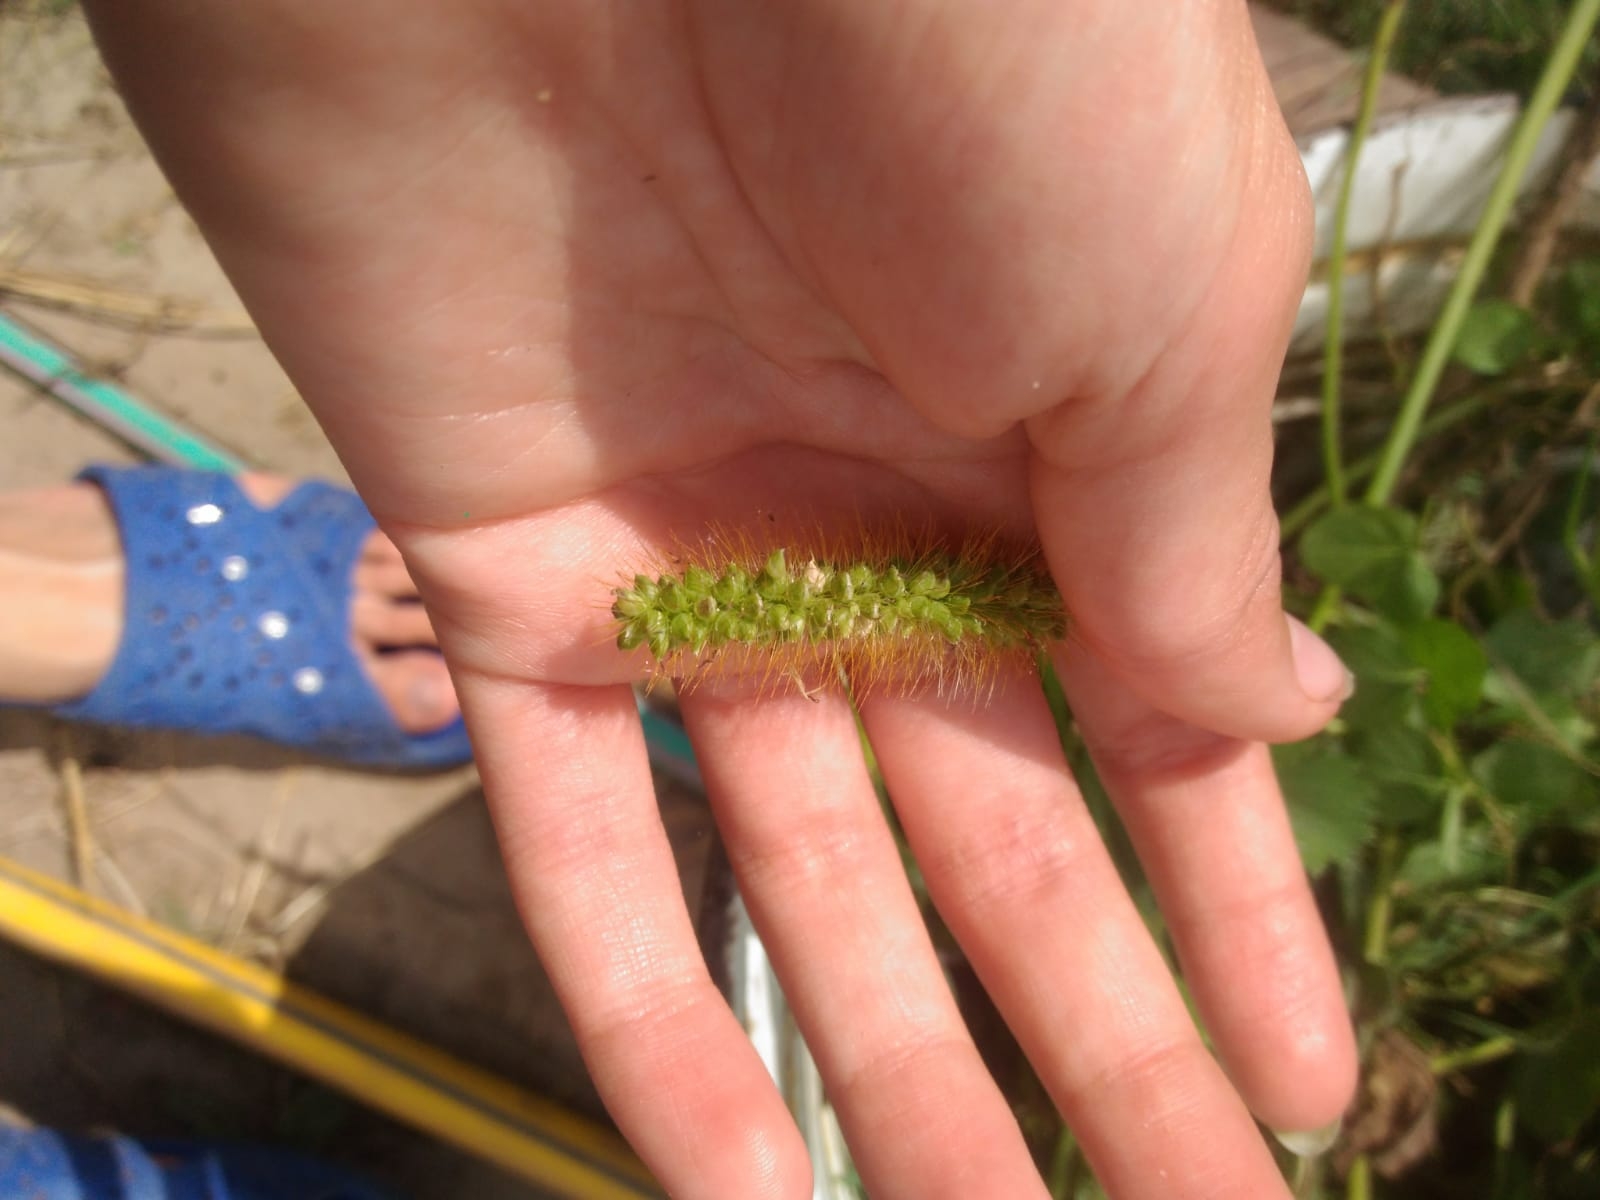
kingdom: Plantae
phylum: Tracheophyta
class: Liliopsida
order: Poales
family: Poaceae
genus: Setaria
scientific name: Setaria pumila
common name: Yellow bristle-grass
